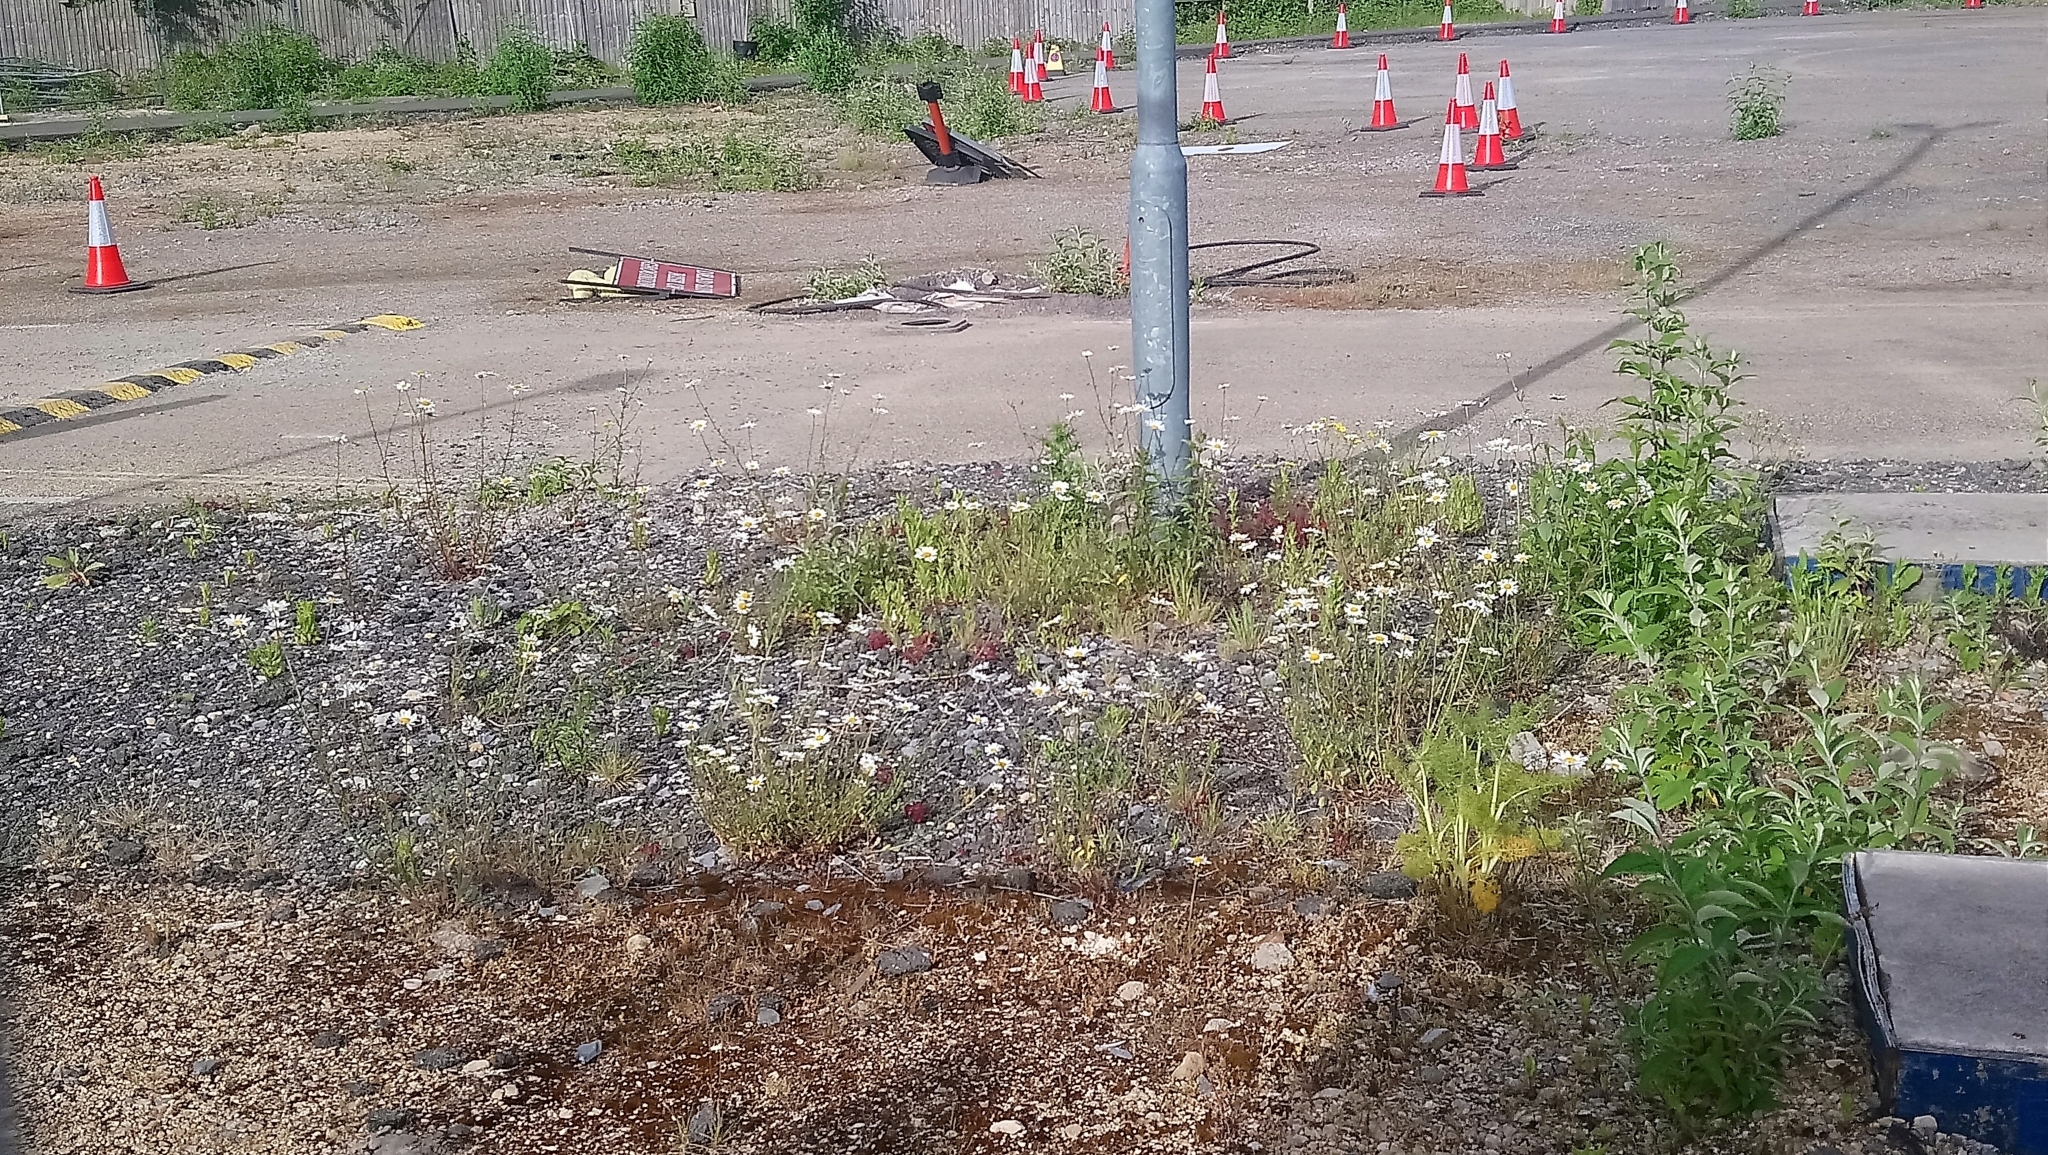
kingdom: Plantae
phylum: Tracheophyta
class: Magnoliopsida
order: Asterales
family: Asteraceae
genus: Leucanthemum
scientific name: Leucanthemum vulgare
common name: Oxeye daisy
